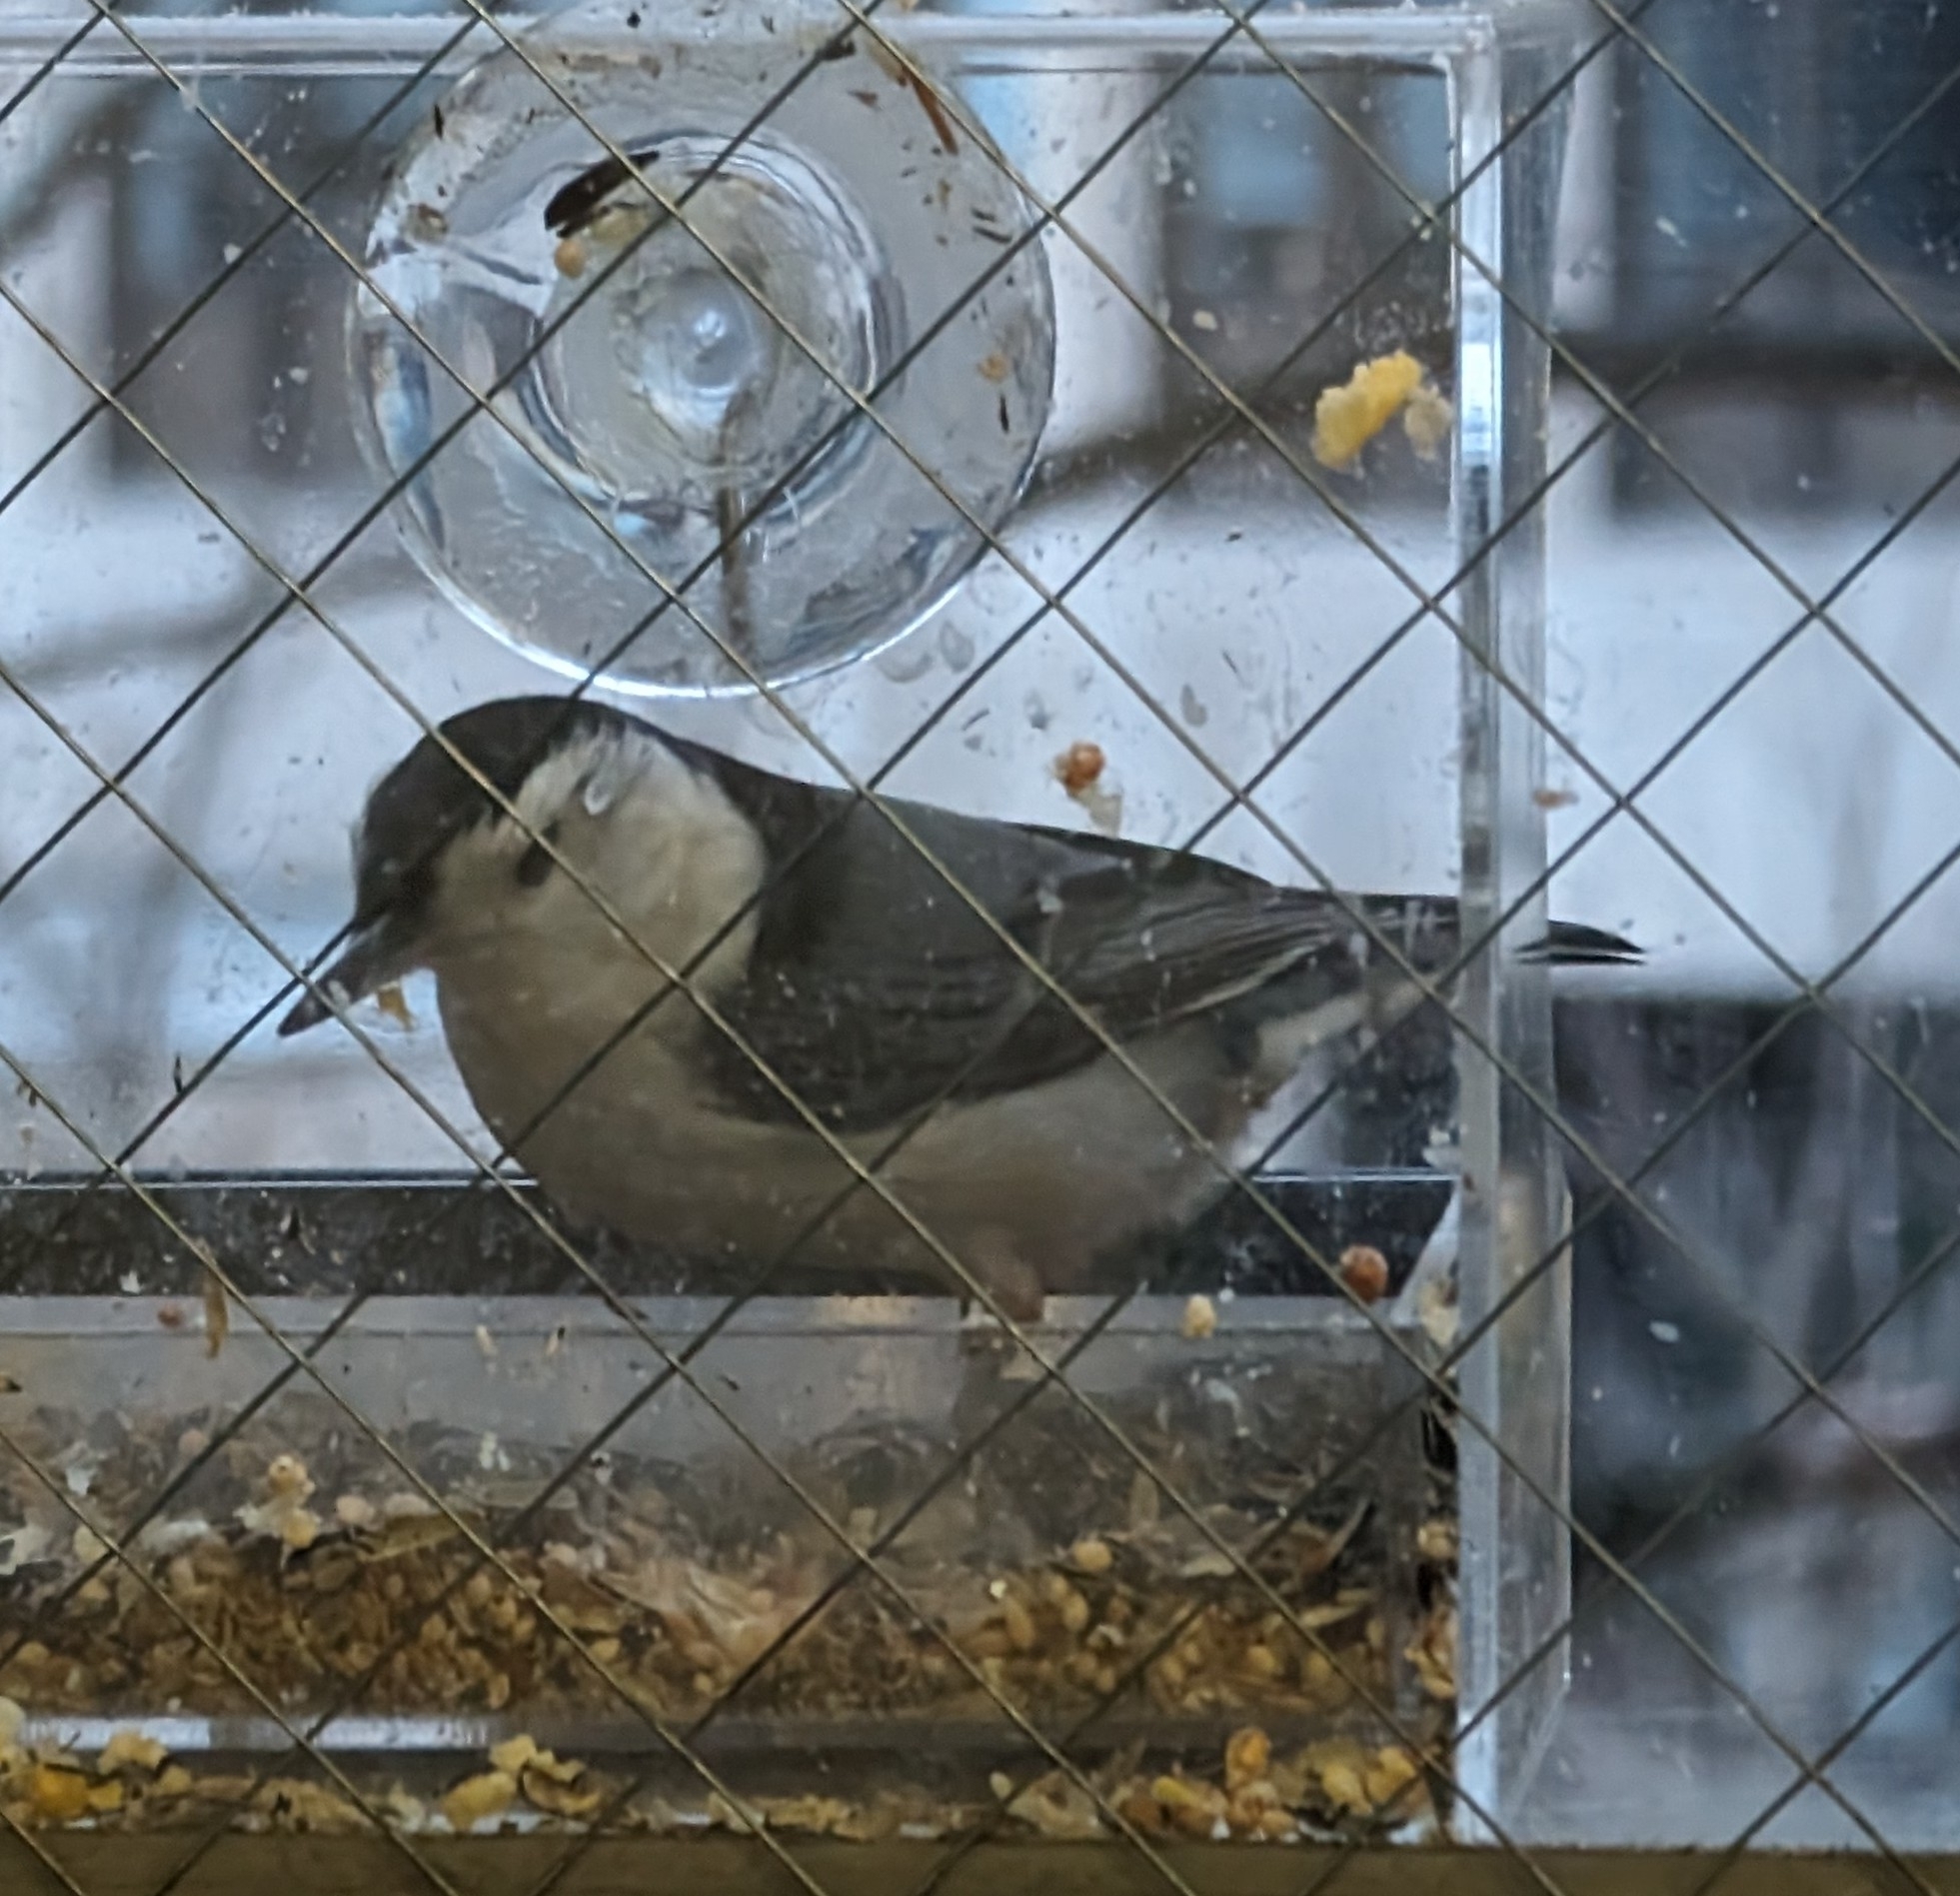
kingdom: Animalia
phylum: Chordata
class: Aves
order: Passeriformes
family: Sittidae
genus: Sitta
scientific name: Sitta carolinensis
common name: White-breasted nuthatch
